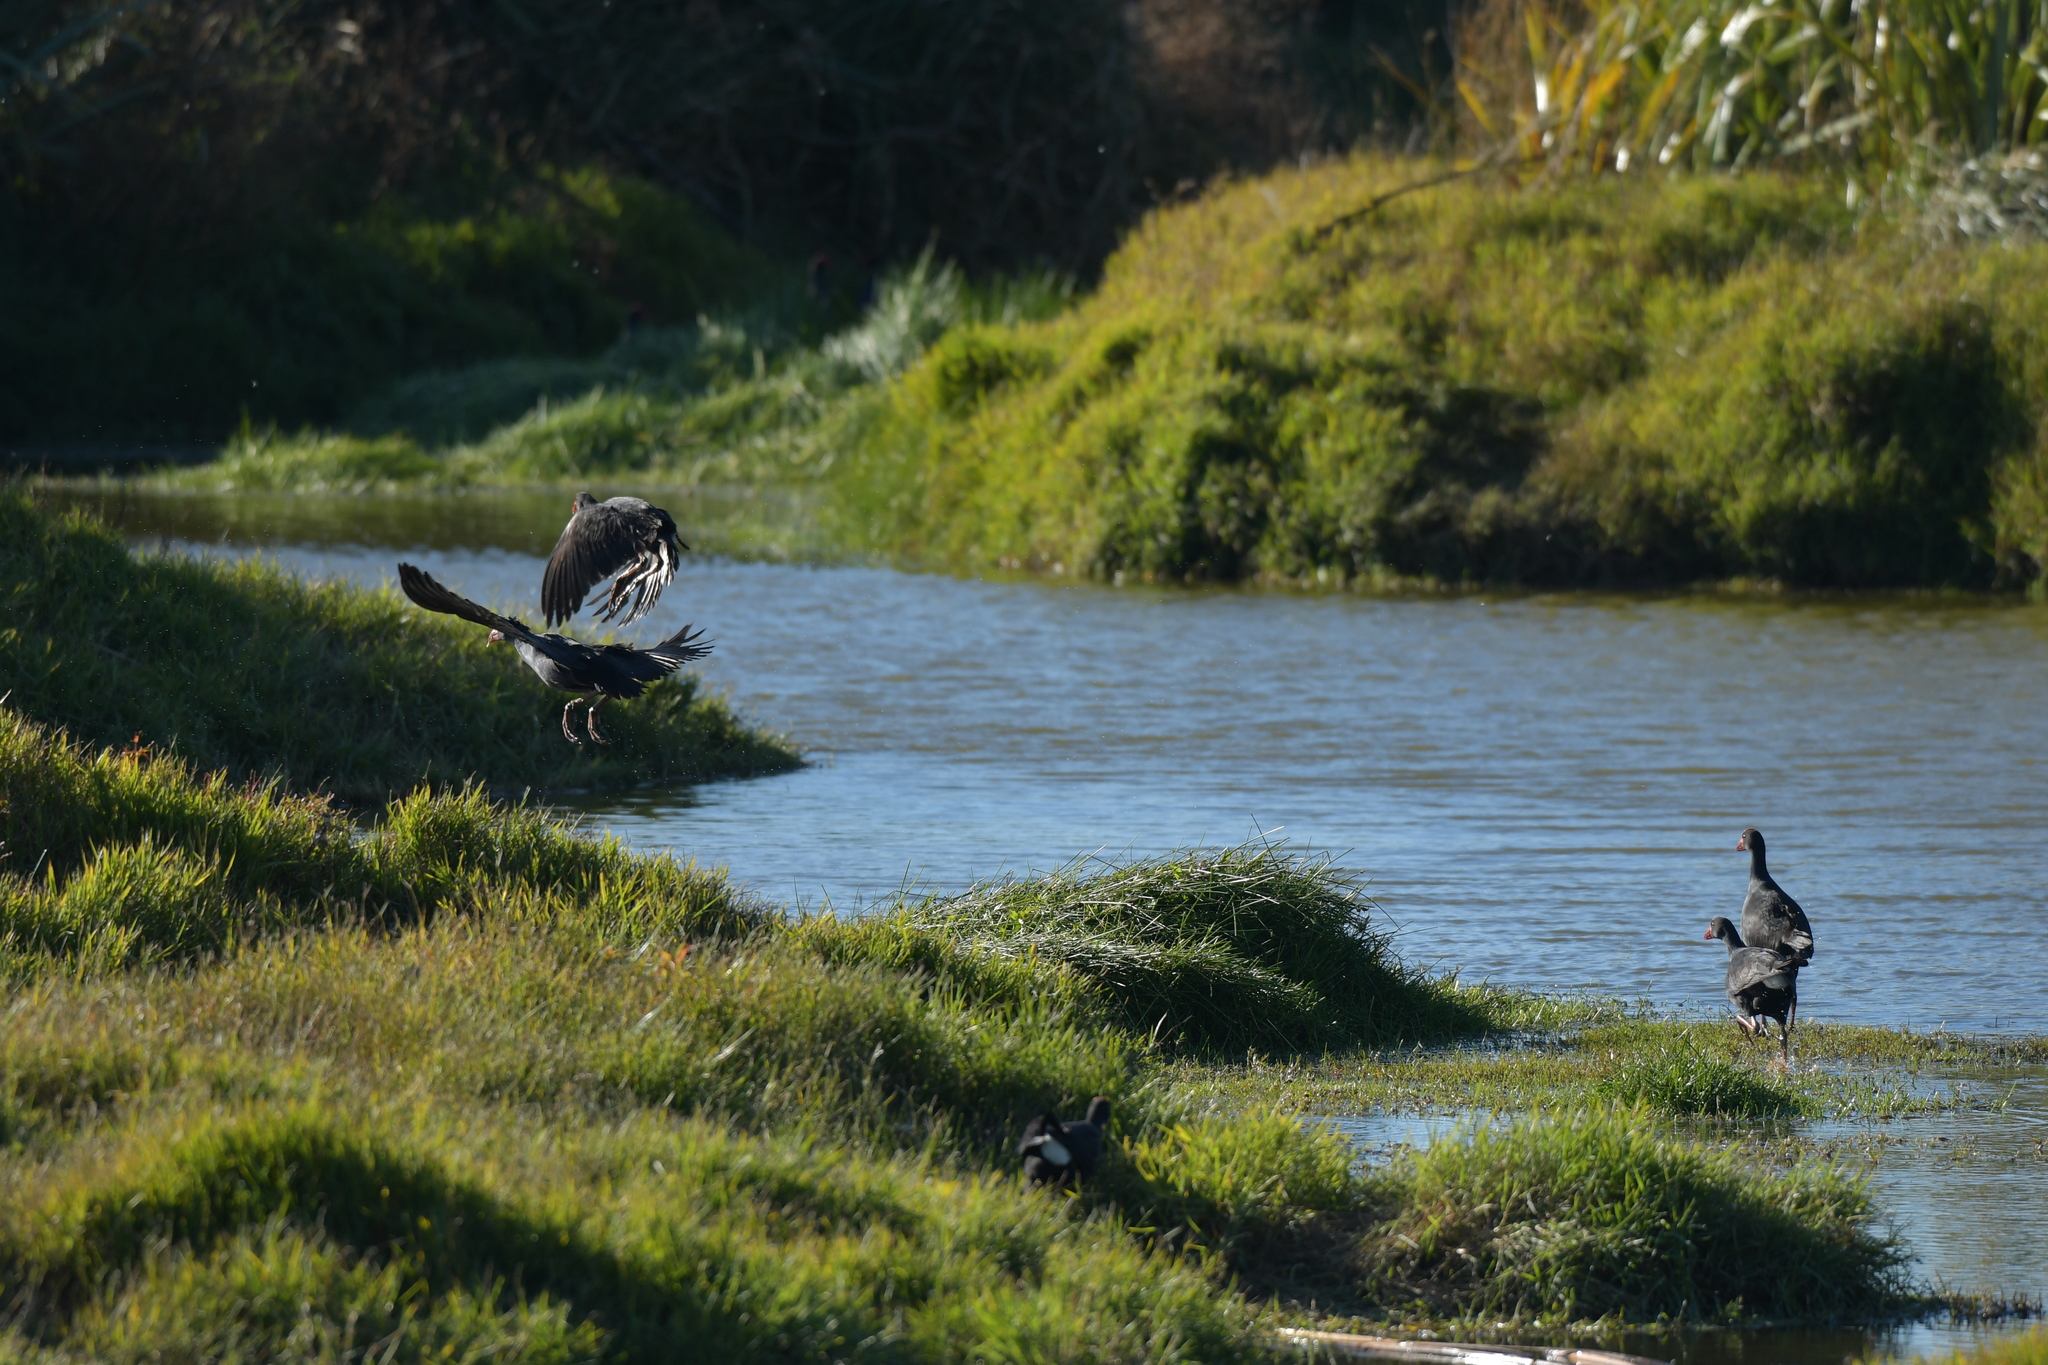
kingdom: Animalia
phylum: Chordata
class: Aves
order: Gruiformes
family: Rallidae
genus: Porphyrio
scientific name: Porphyrio melanotus
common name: Australasian swamphen
